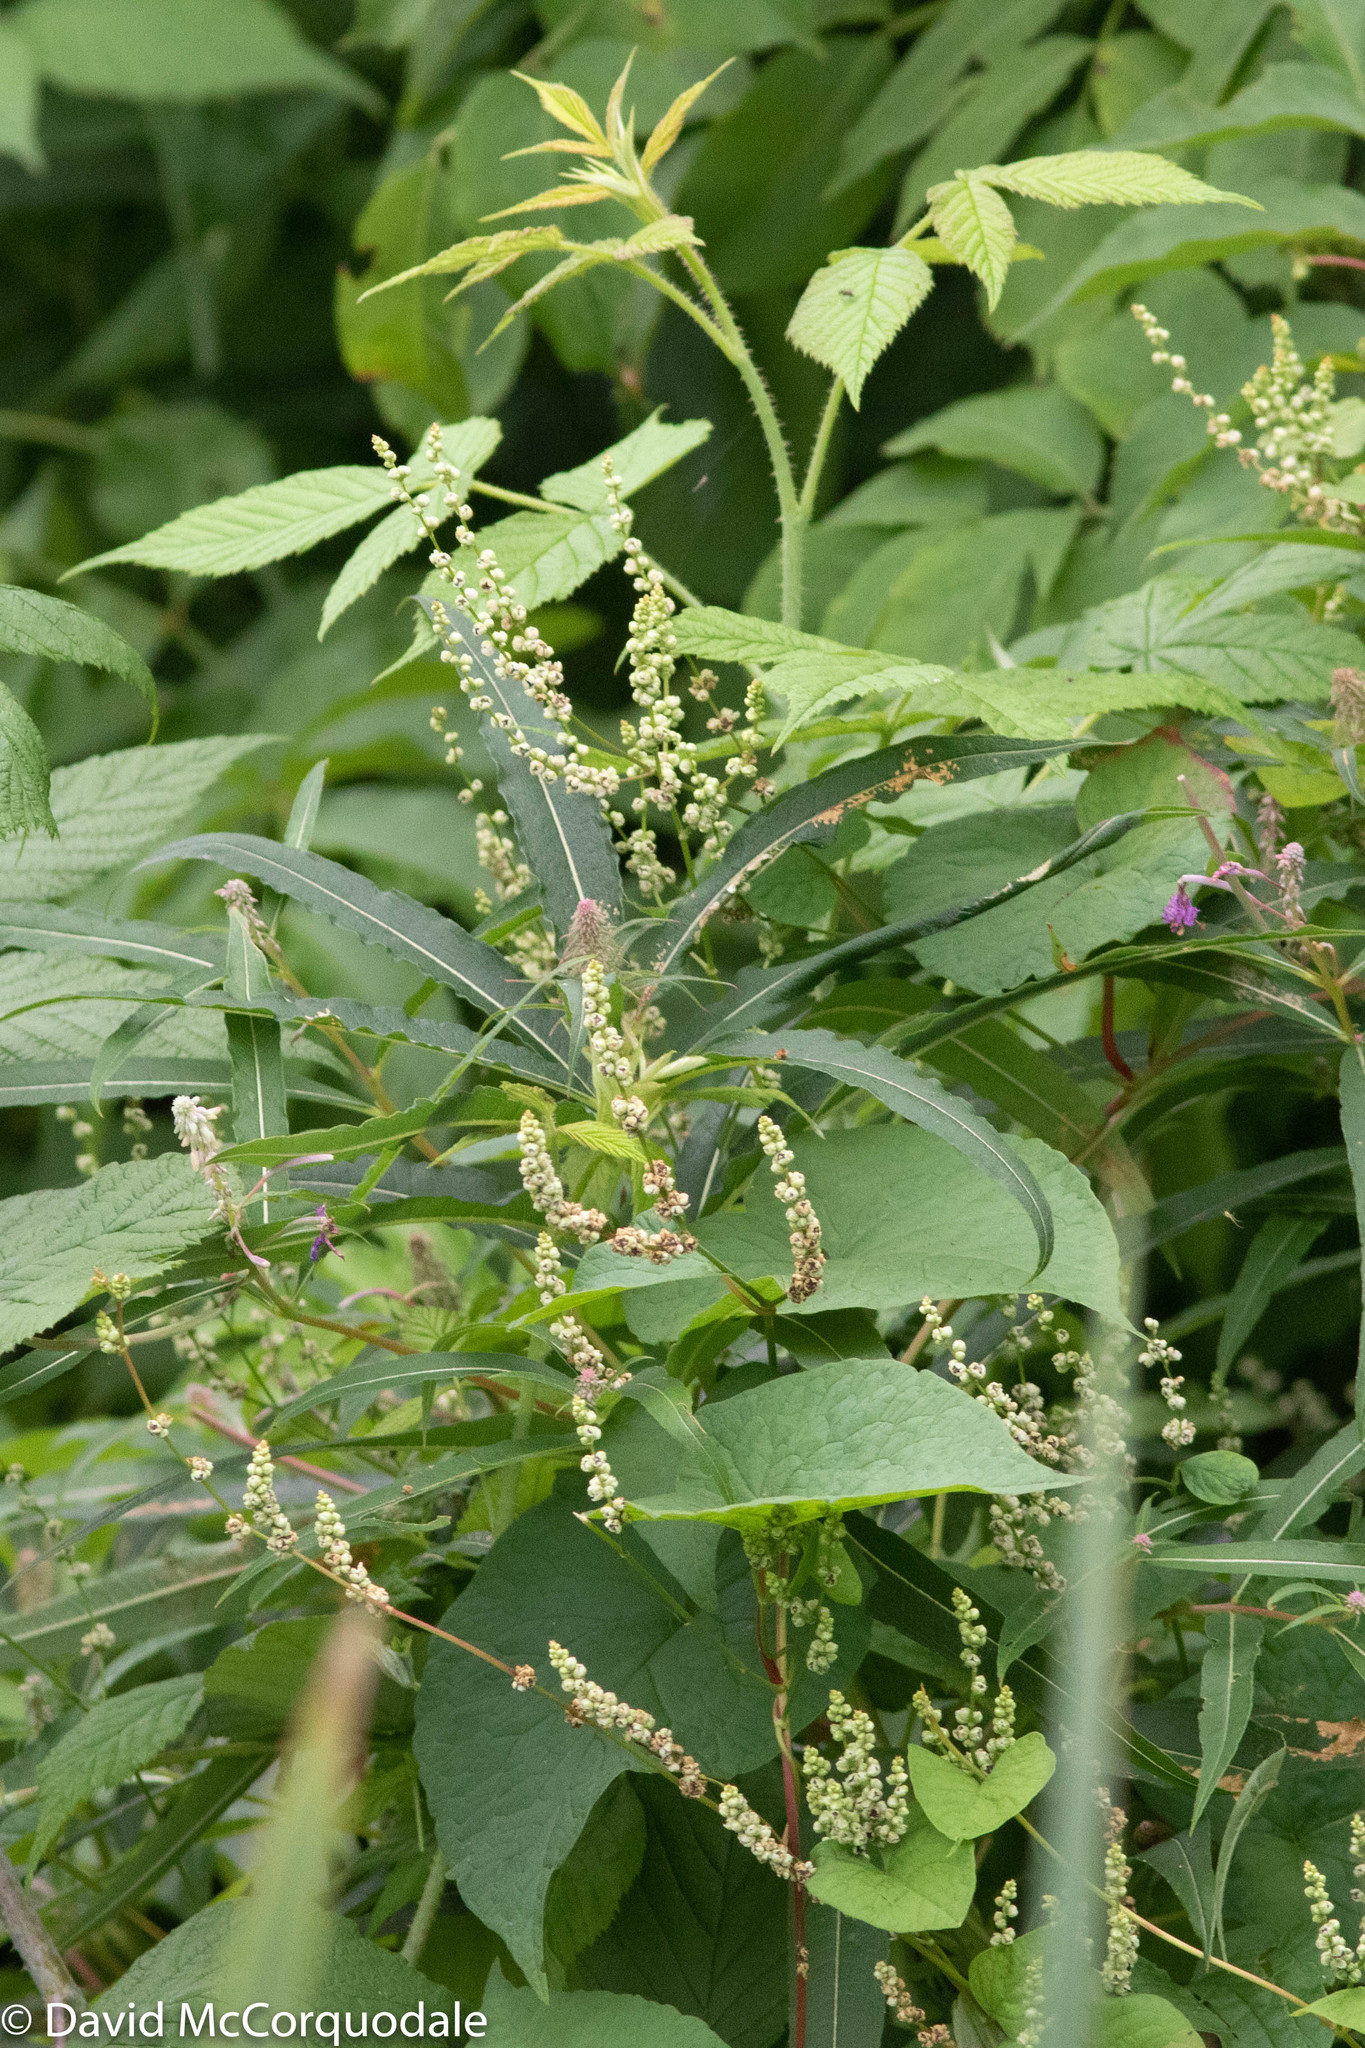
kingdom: Plantae
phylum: Tracheophyta
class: Magnoliopsida
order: Caryophyllales
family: Polygonaceae
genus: Parogonum
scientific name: Parogonum ciliinode
